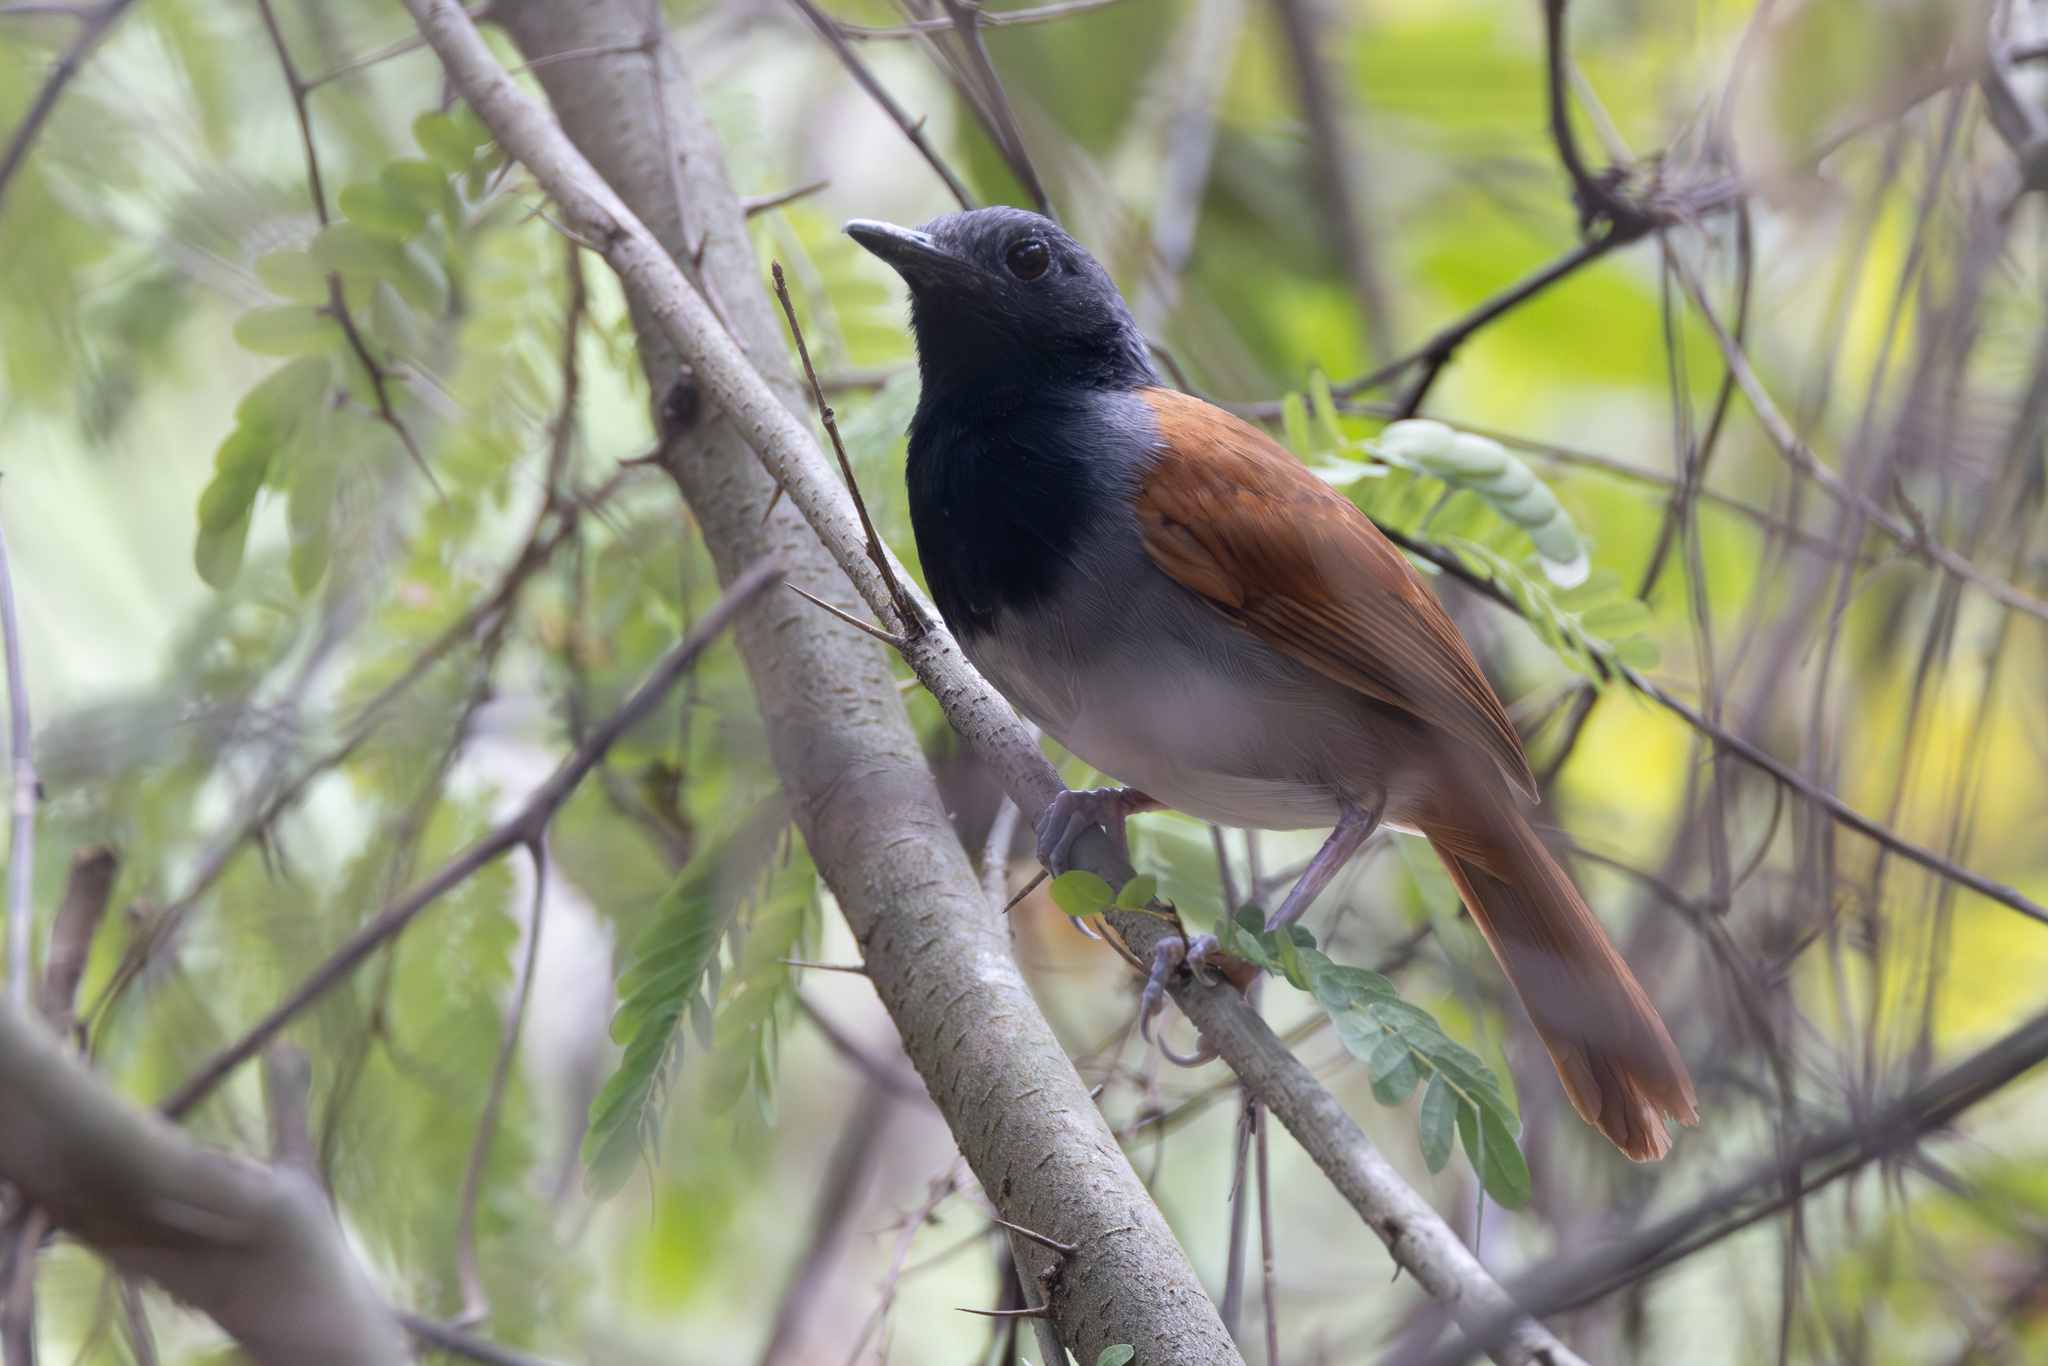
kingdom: Animalia
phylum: Chordata
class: Aves
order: Passeriformes
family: Thamnophilidae
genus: Myrmeciza
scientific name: Myrmeciza longipes
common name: White-bellied antbird
